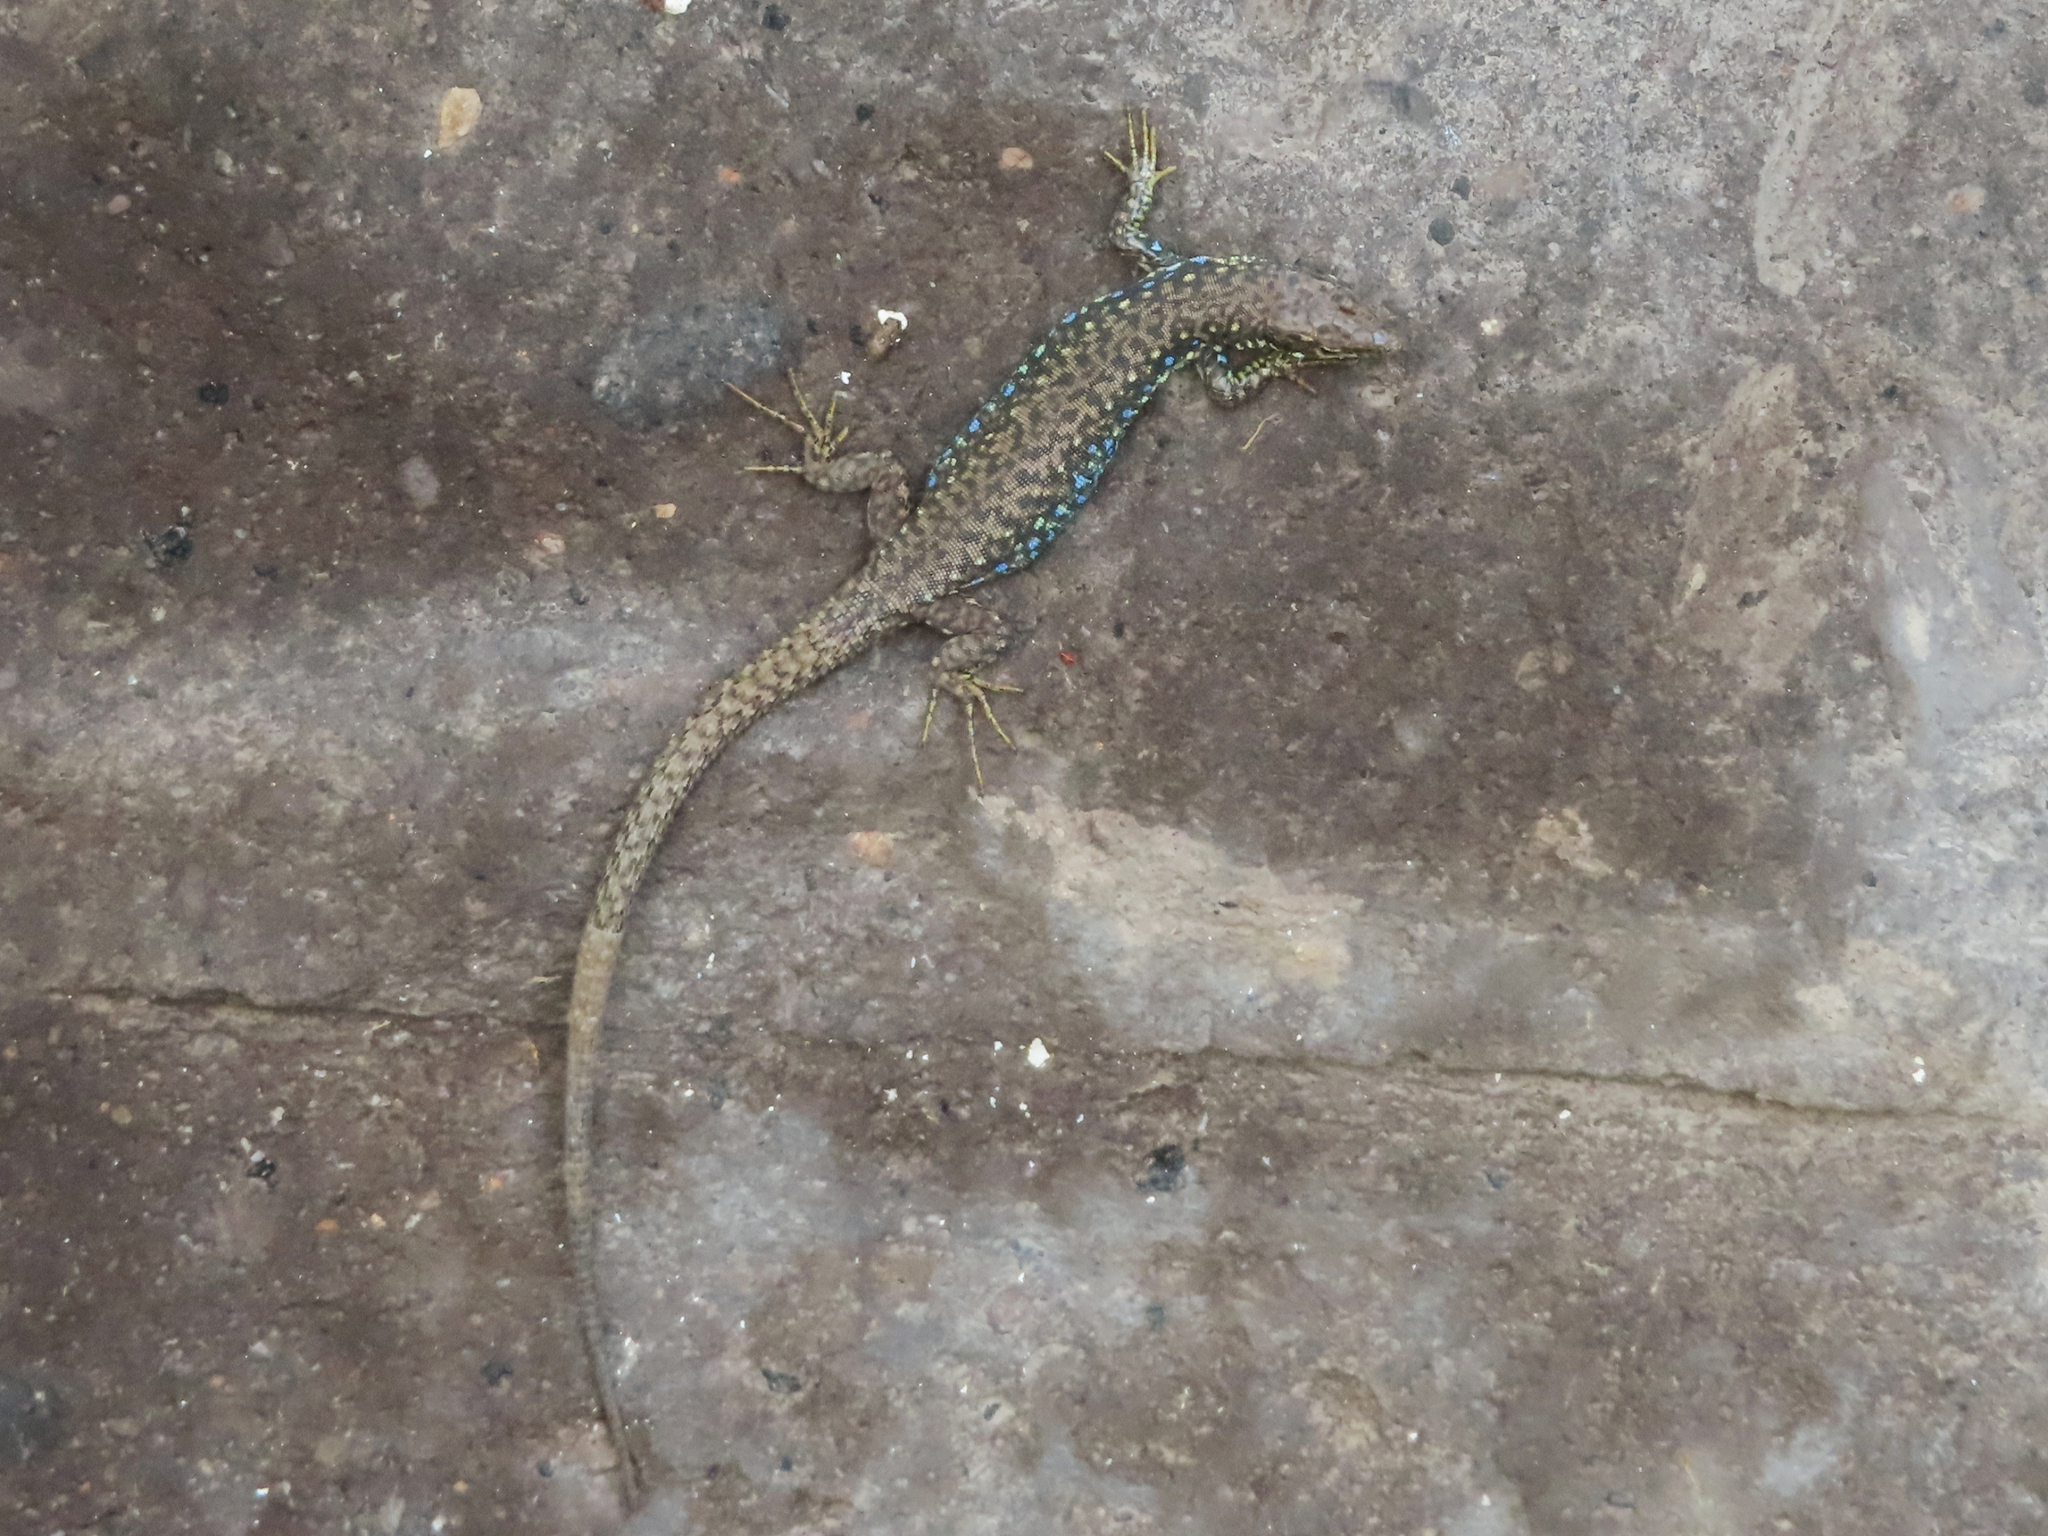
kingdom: Animalia
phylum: Chordata
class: Squamata
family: Lacertidae
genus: Darevskia
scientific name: Darevskia
